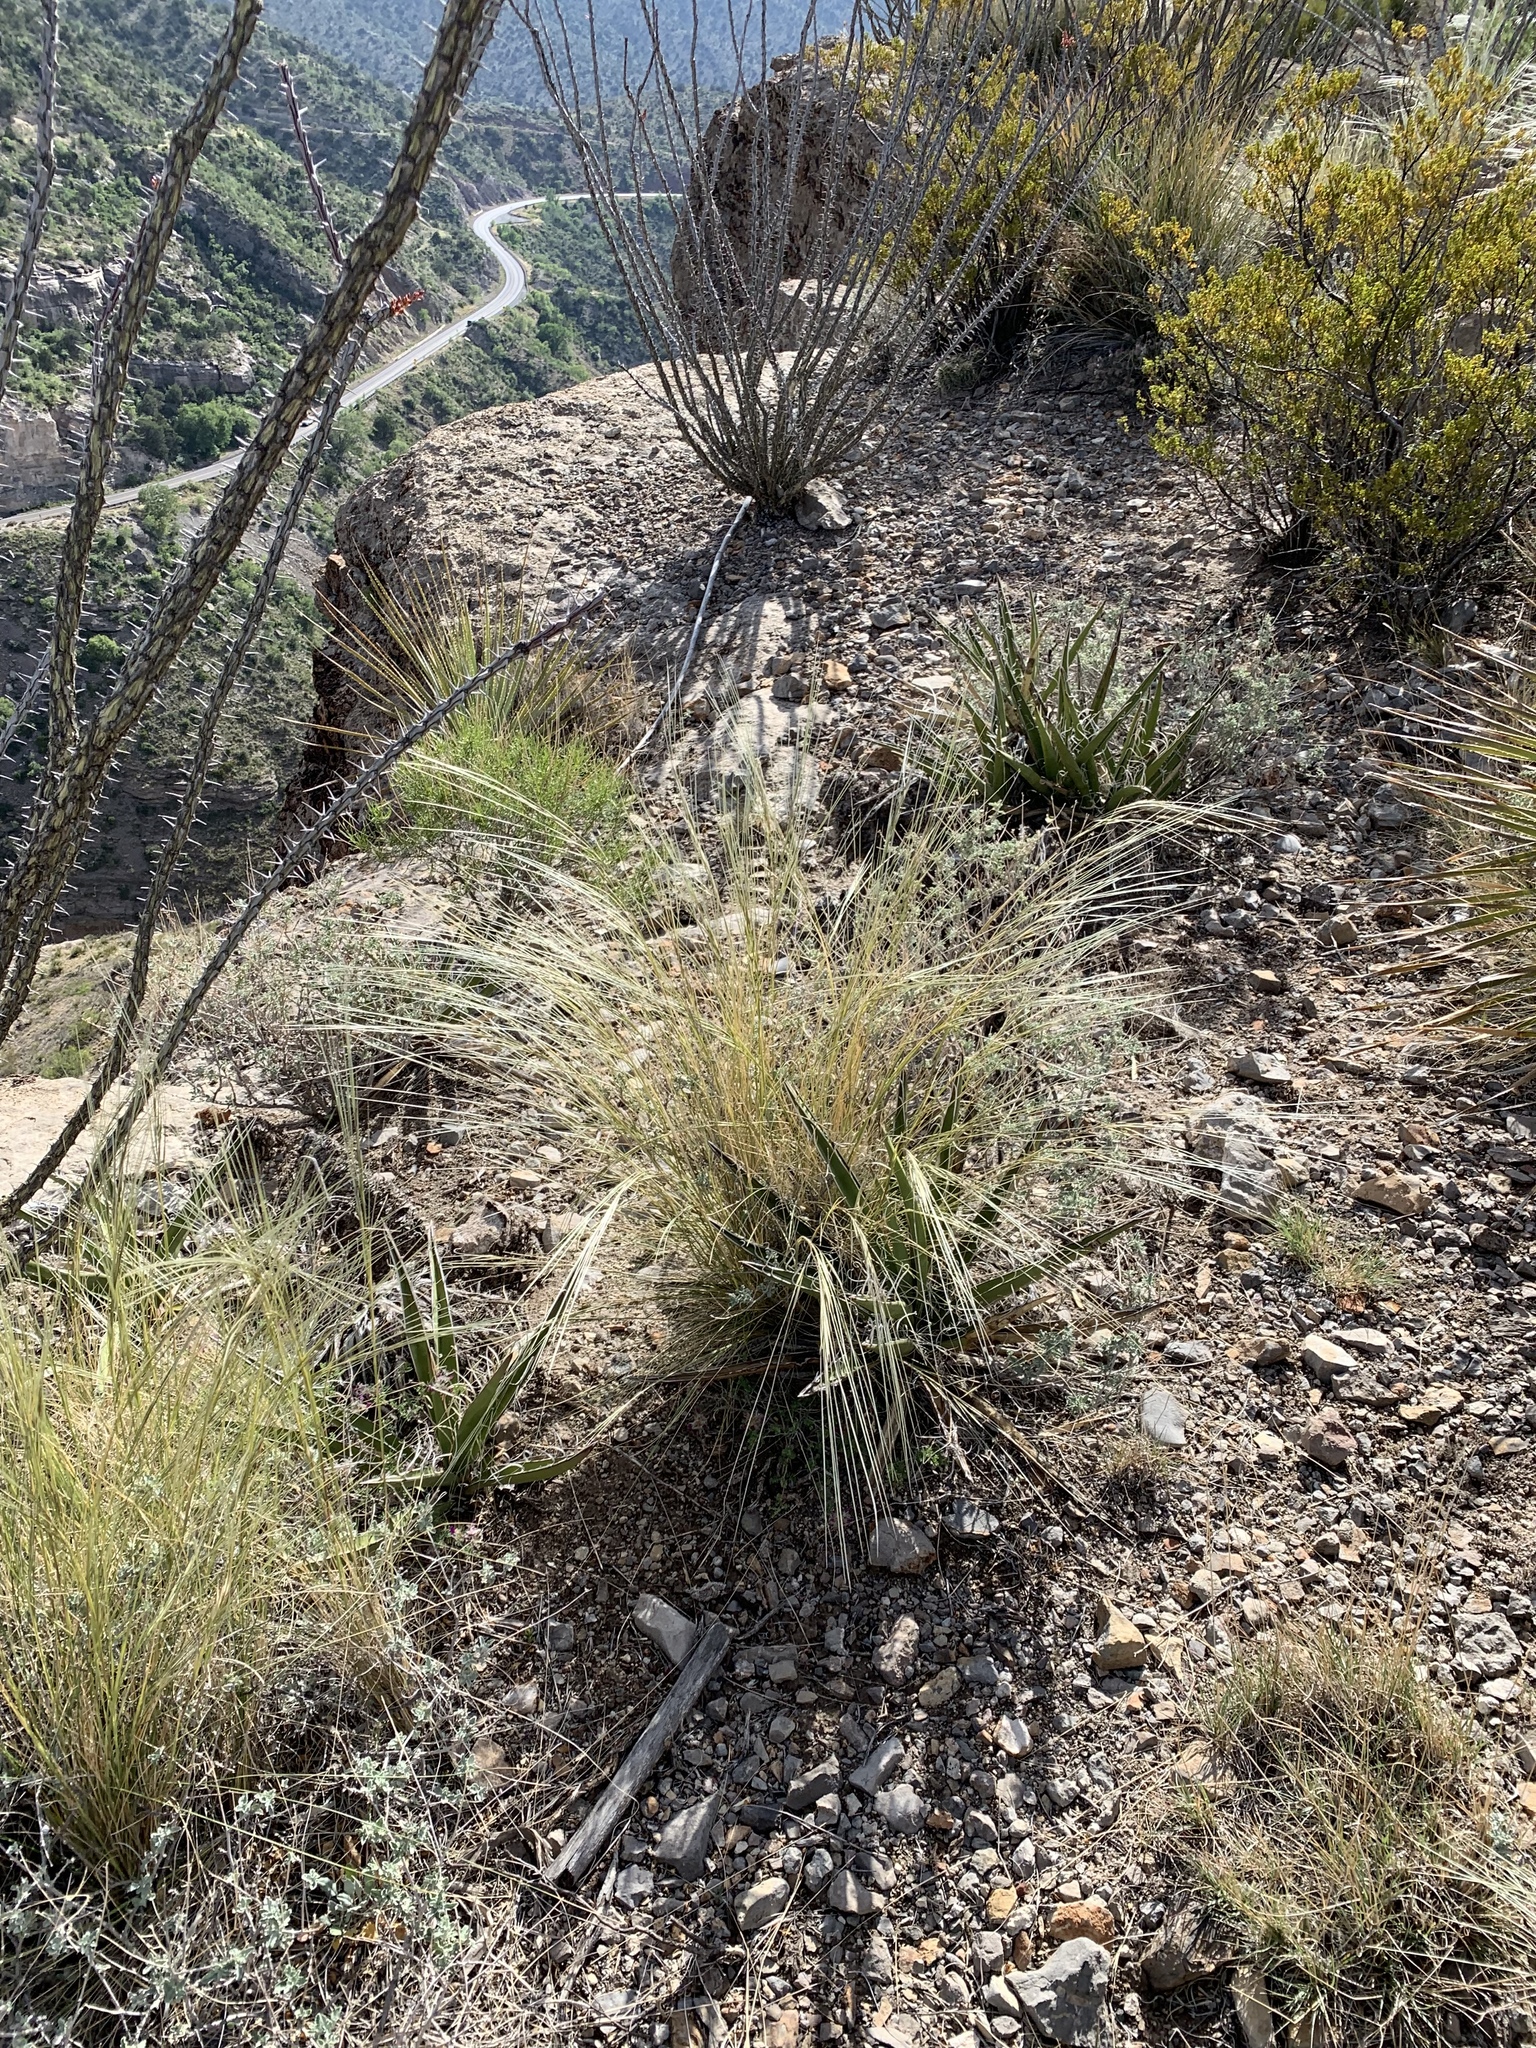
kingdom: Plantae
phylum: Tracheophyta
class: Liliopsida
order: Poales
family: Poaceae
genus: Hesperostipa
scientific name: Hesperostipa neomexicana
